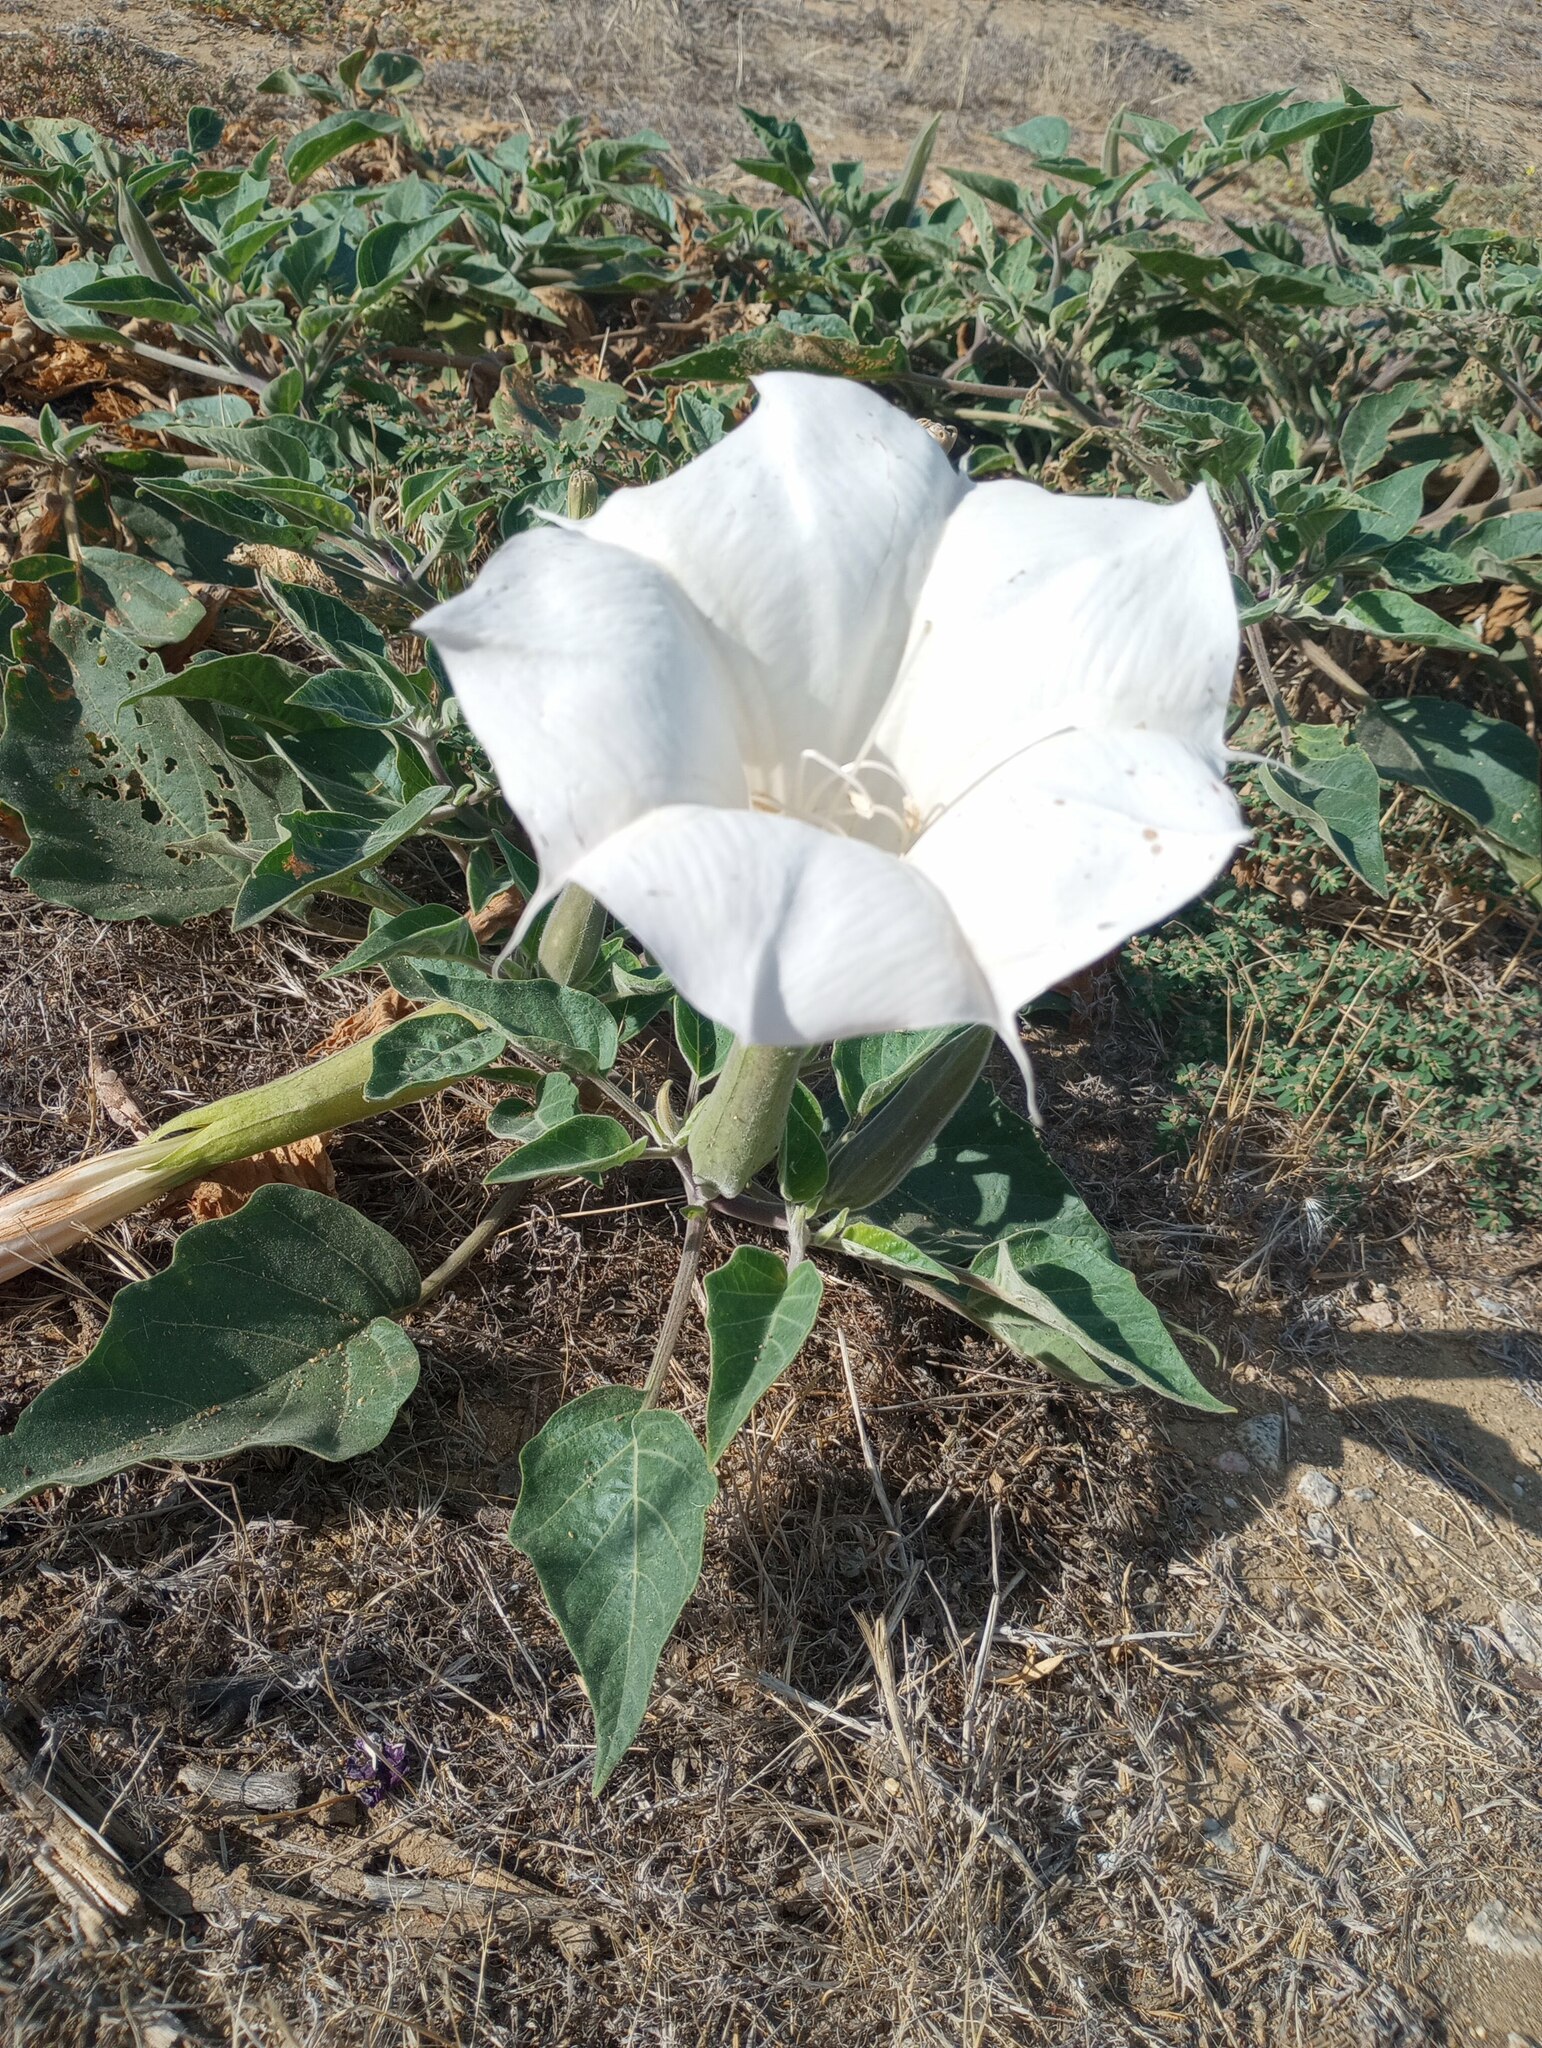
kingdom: Plantae
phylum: Tracheophyta
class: Magnoliopsida
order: Solanales
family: Solanaceae
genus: Datura
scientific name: Datura wrightii
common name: Sacred thorn-apple
